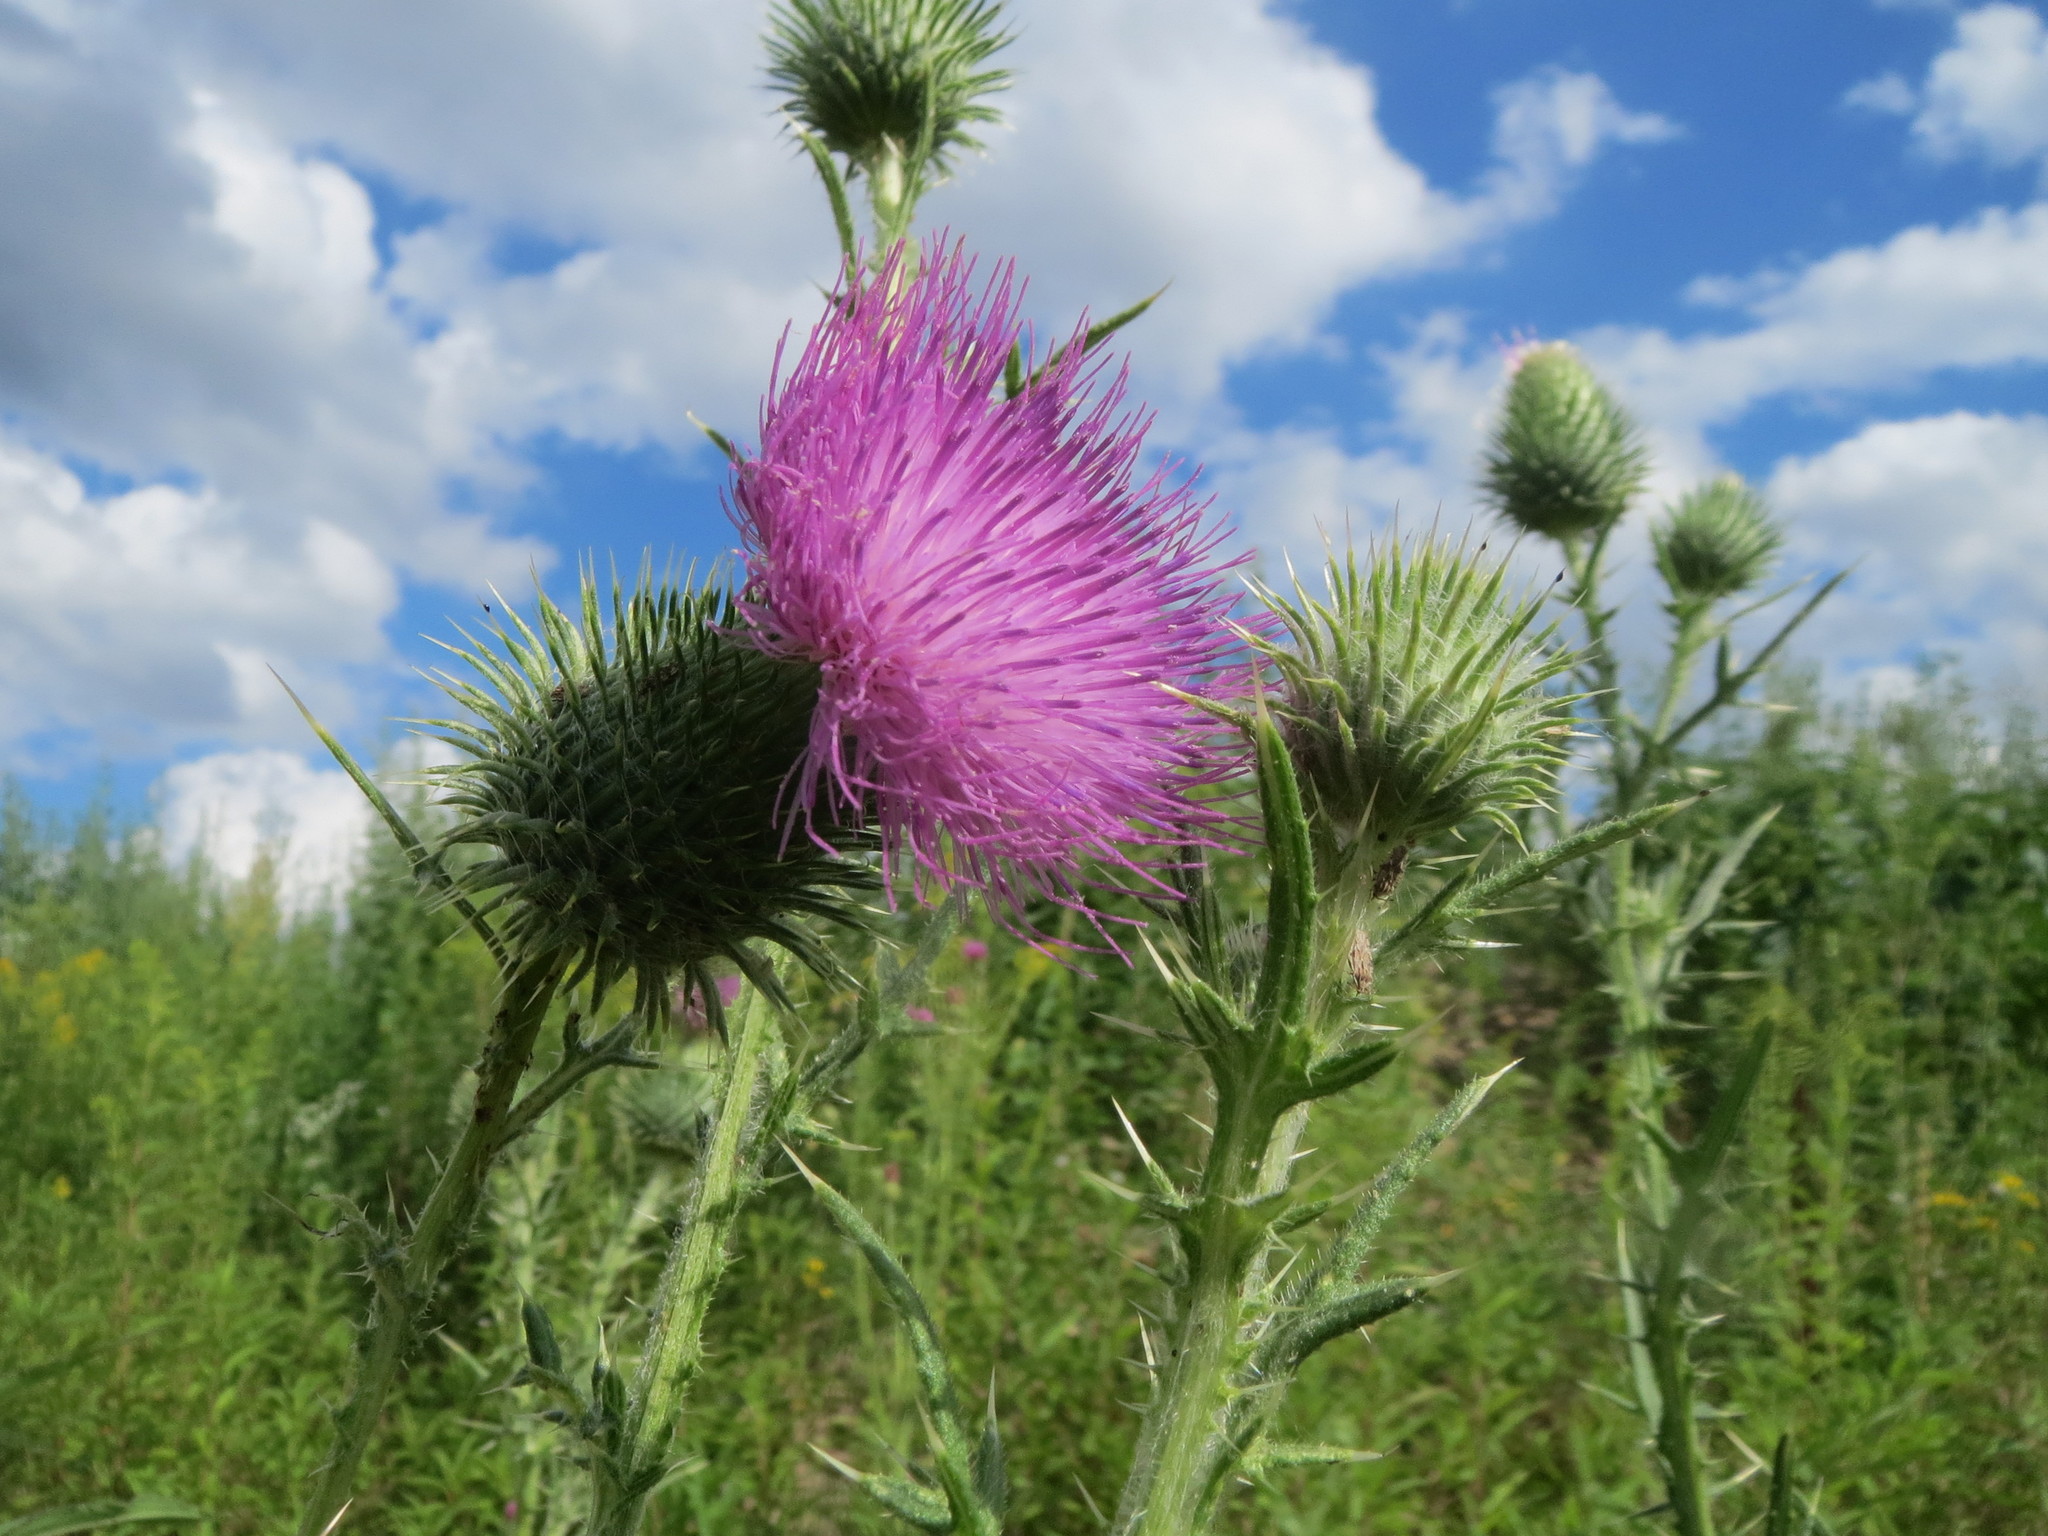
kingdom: Plantae
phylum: Tracheophyta
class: Magnoliopsida
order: Asterales
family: Asteraceae
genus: Cirsium
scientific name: Cirsium vulgare
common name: Bull thistle
